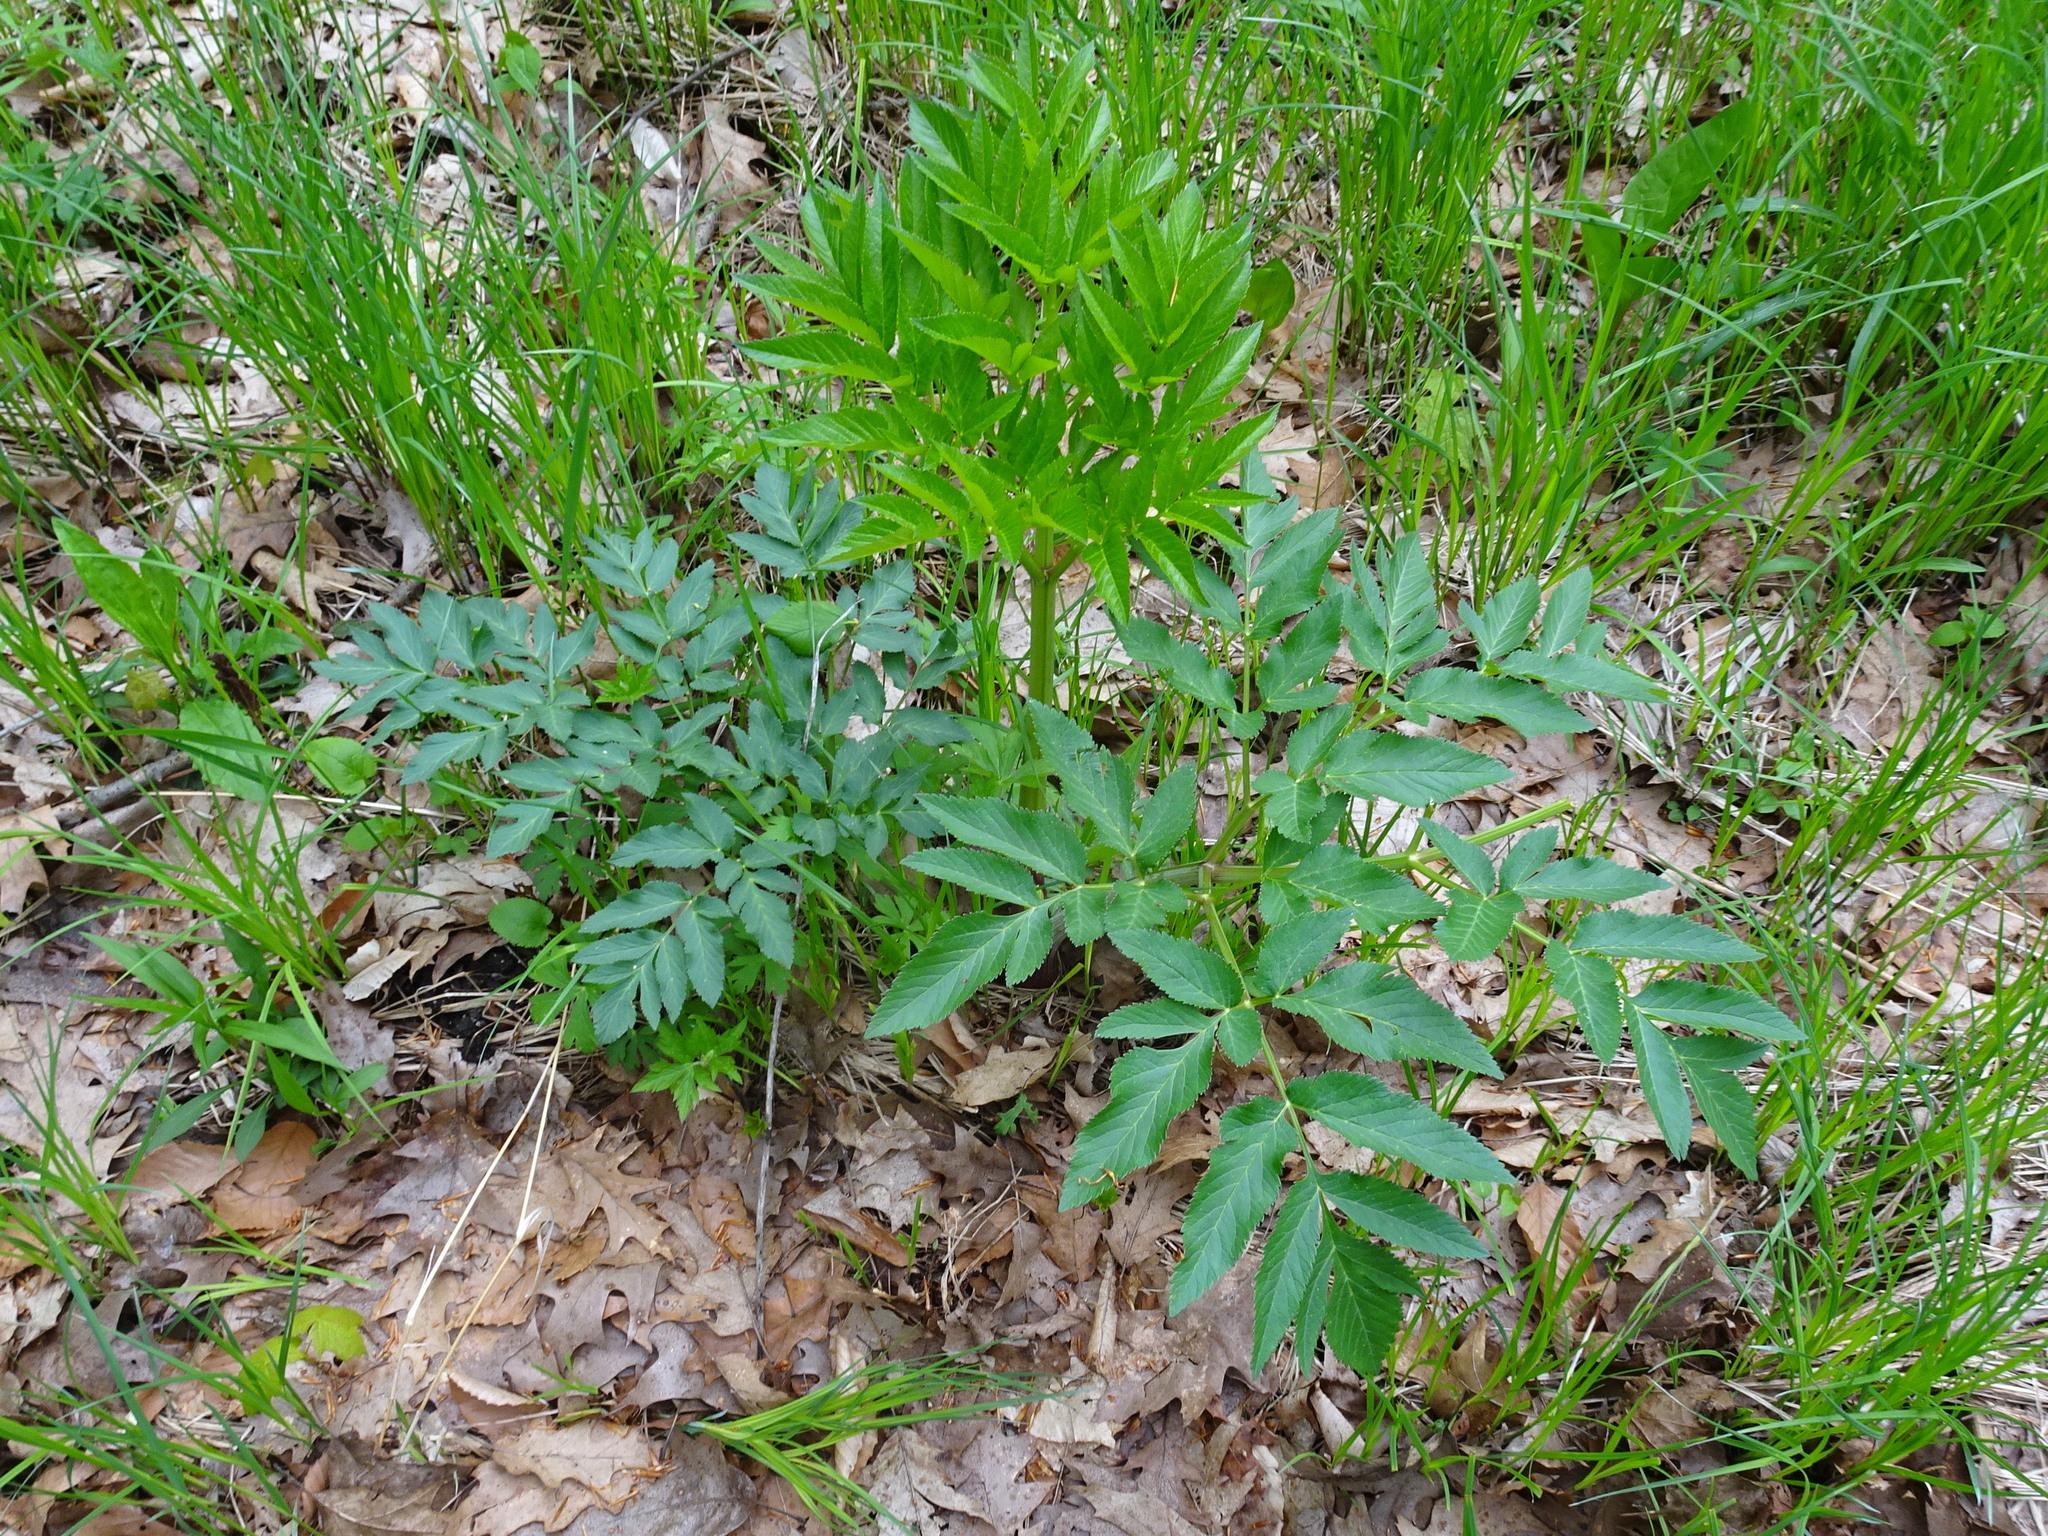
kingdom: Plantae
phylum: Tracheophyta
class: Magnoliopsida
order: Apiales
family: Apiaceae
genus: Angelica
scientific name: Angelica atropurpurea
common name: Great angelica
